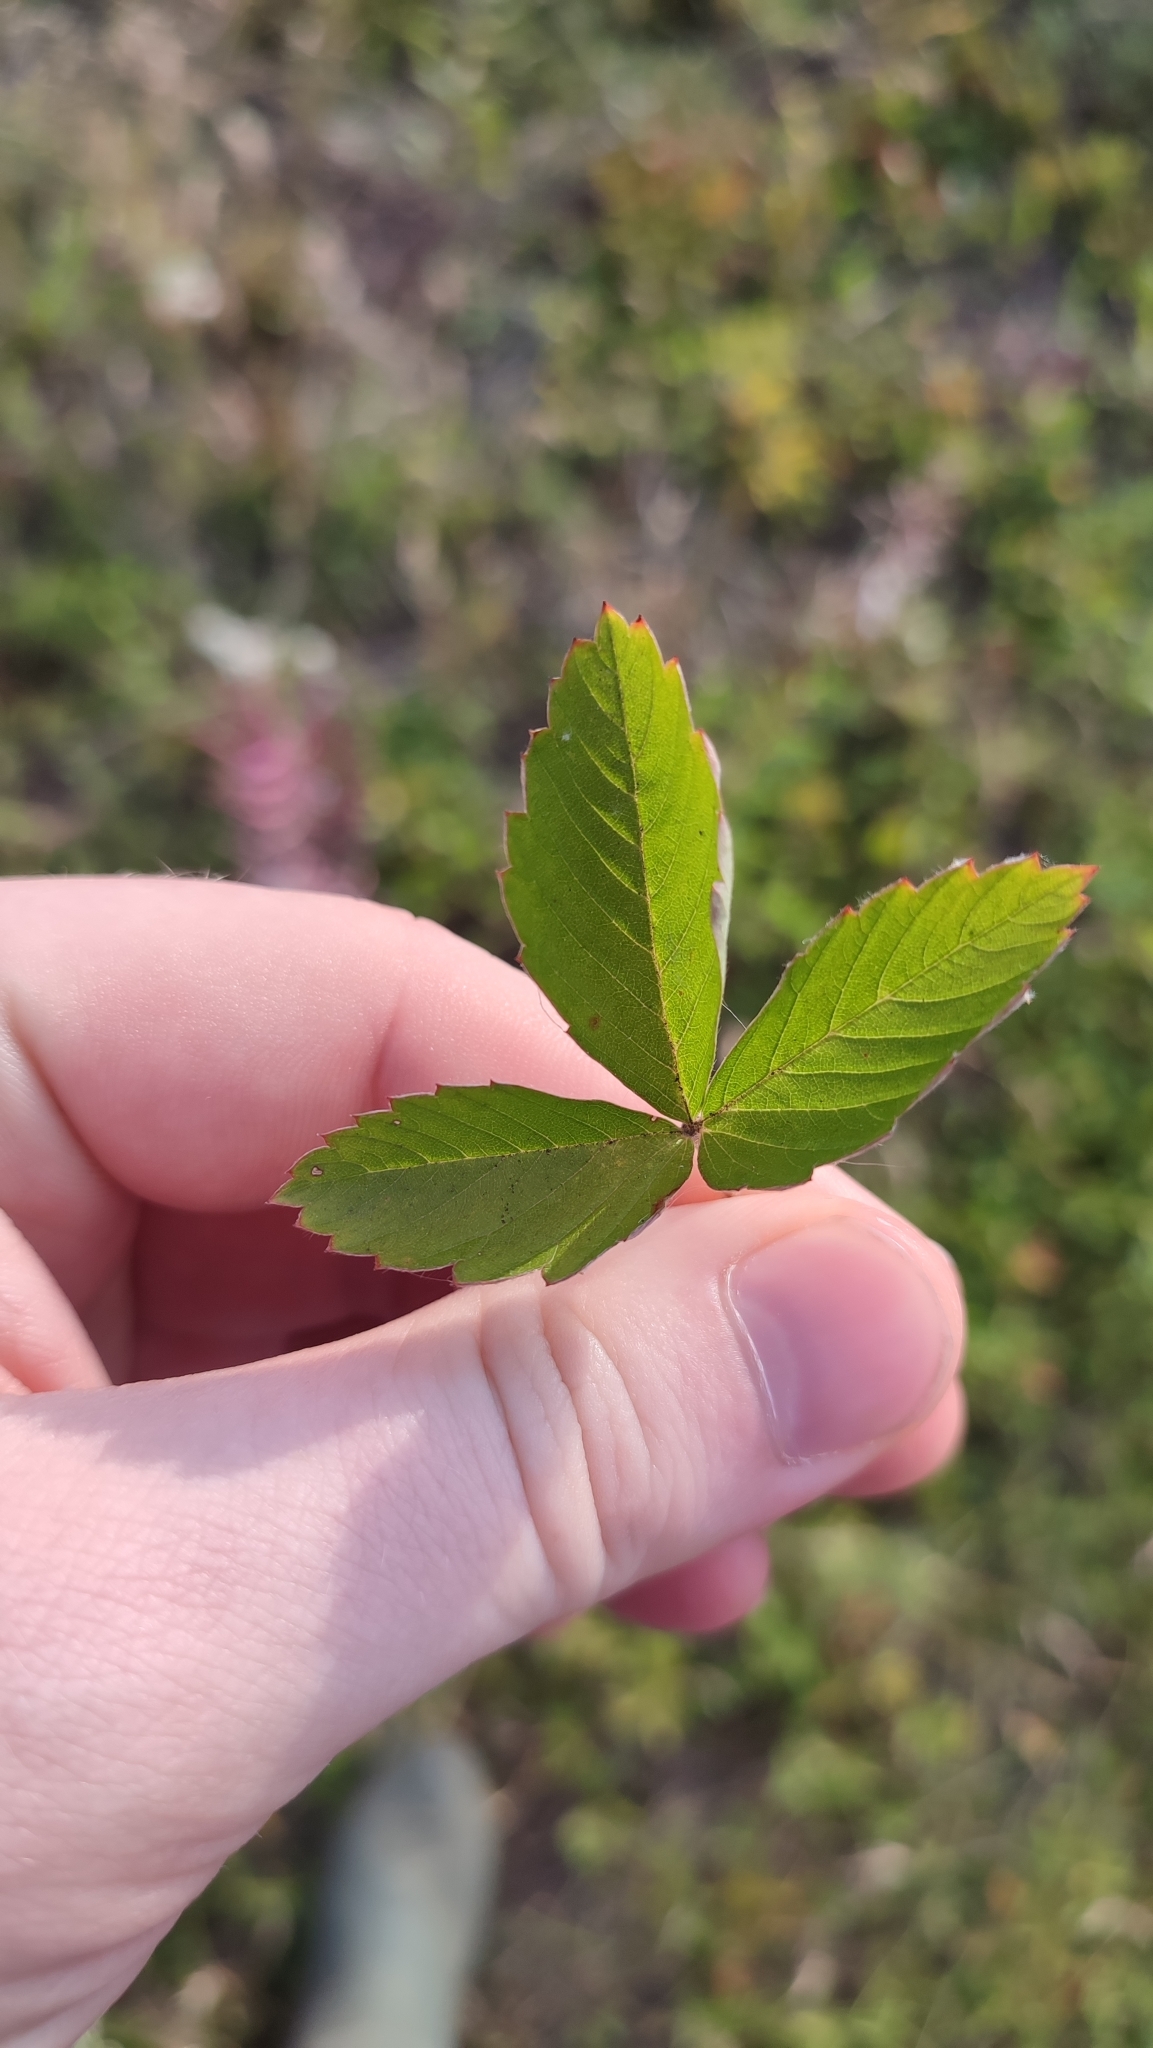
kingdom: Plantae
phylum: Tracheophyta
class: Magnoliopsida
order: Rosales
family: Rosaceae
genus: Fragaria
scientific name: Fragaria viridis
